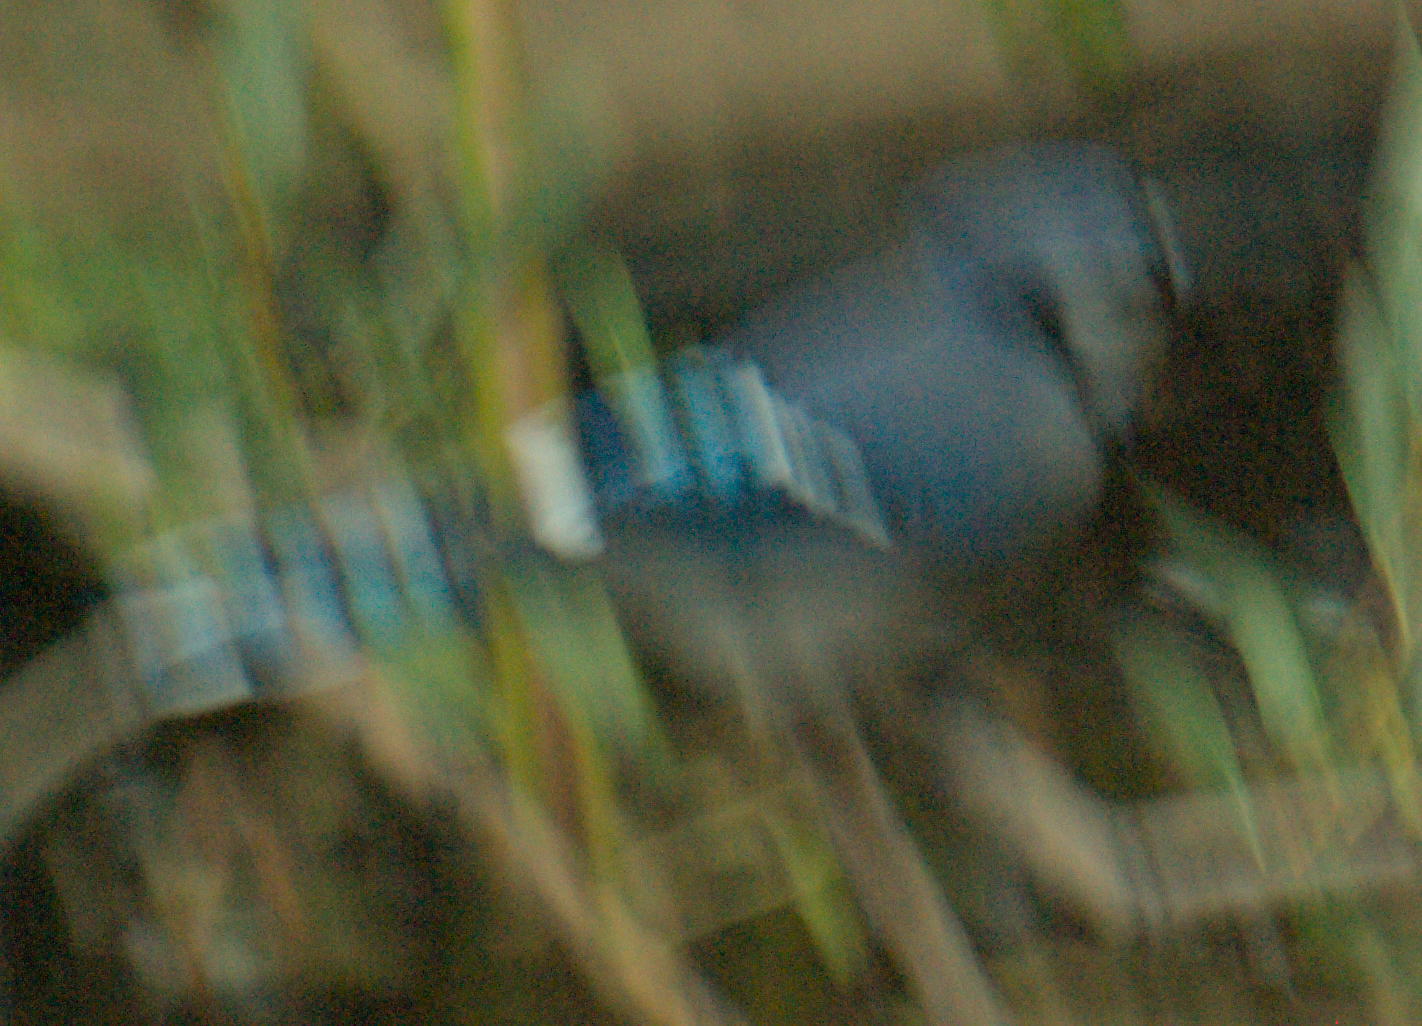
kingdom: Animalia
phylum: Chordata
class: Aves
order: Passeriformes
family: Corvidae
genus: Cyanocitta
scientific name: Cyanocitta cristata
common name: Blue jay
